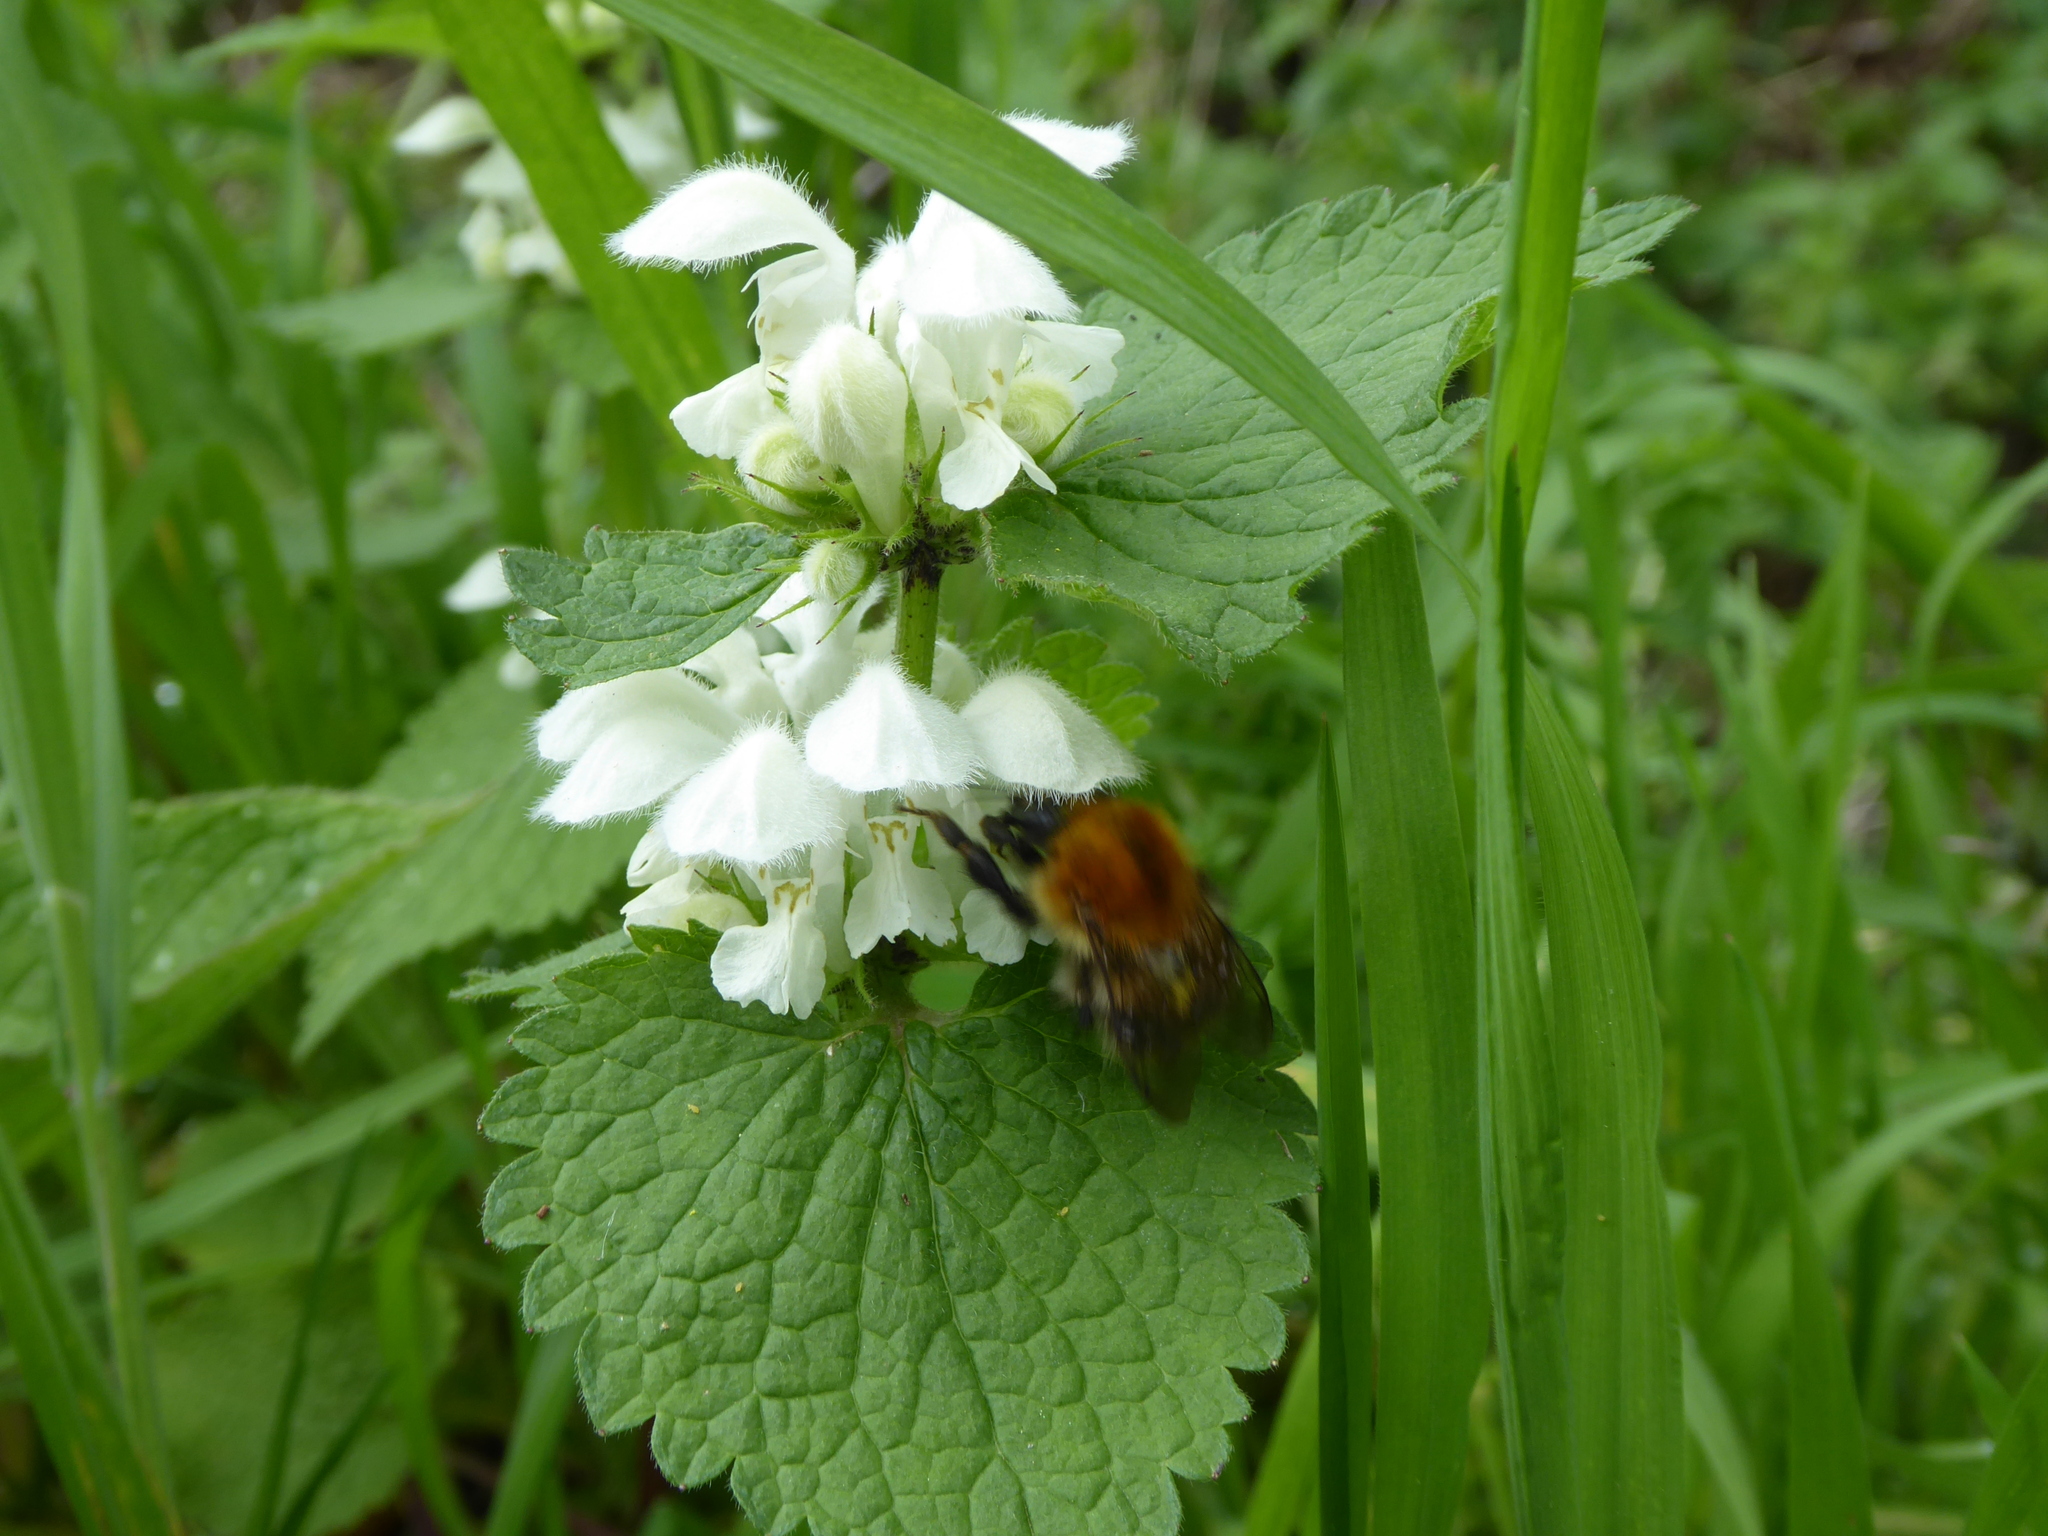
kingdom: Animalia
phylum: Arthropoda
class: Insecta
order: Hymenoptera
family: Apidae
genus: Bombus
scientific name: Bombus pascuorum
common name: Common carder bee
